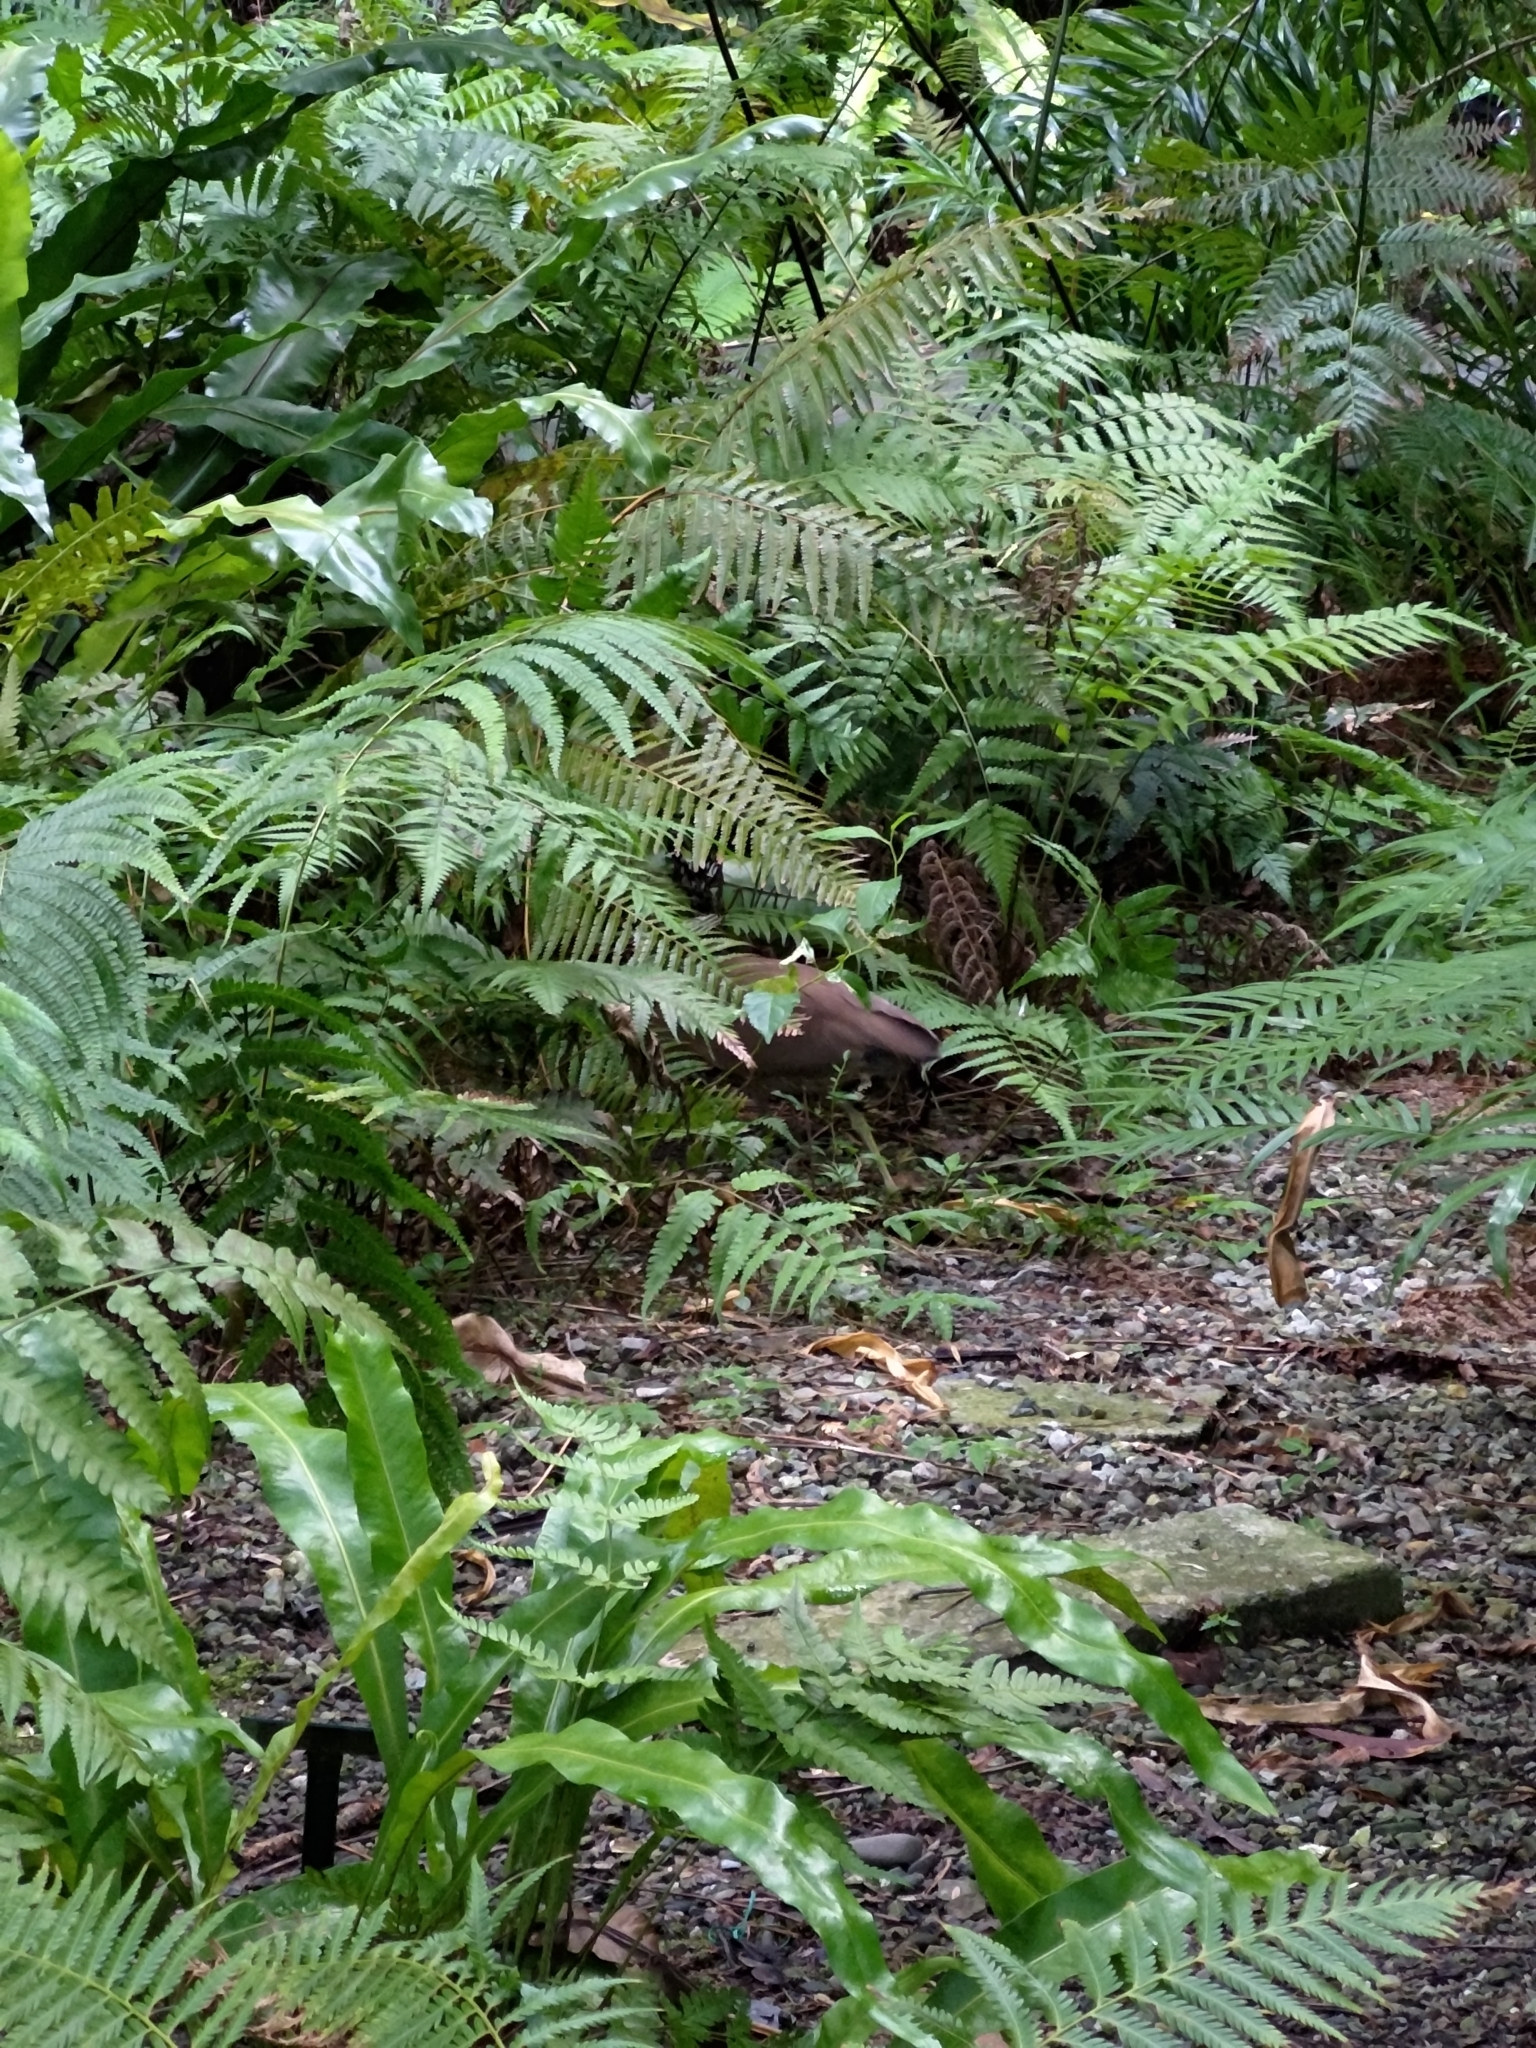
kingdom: Animalia
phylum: Chordata
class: Aves
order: Pelecaniformes
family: Ardeidae
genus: Gorsachius
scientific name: Gorsachius melanolophus
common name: Malayan night heron
